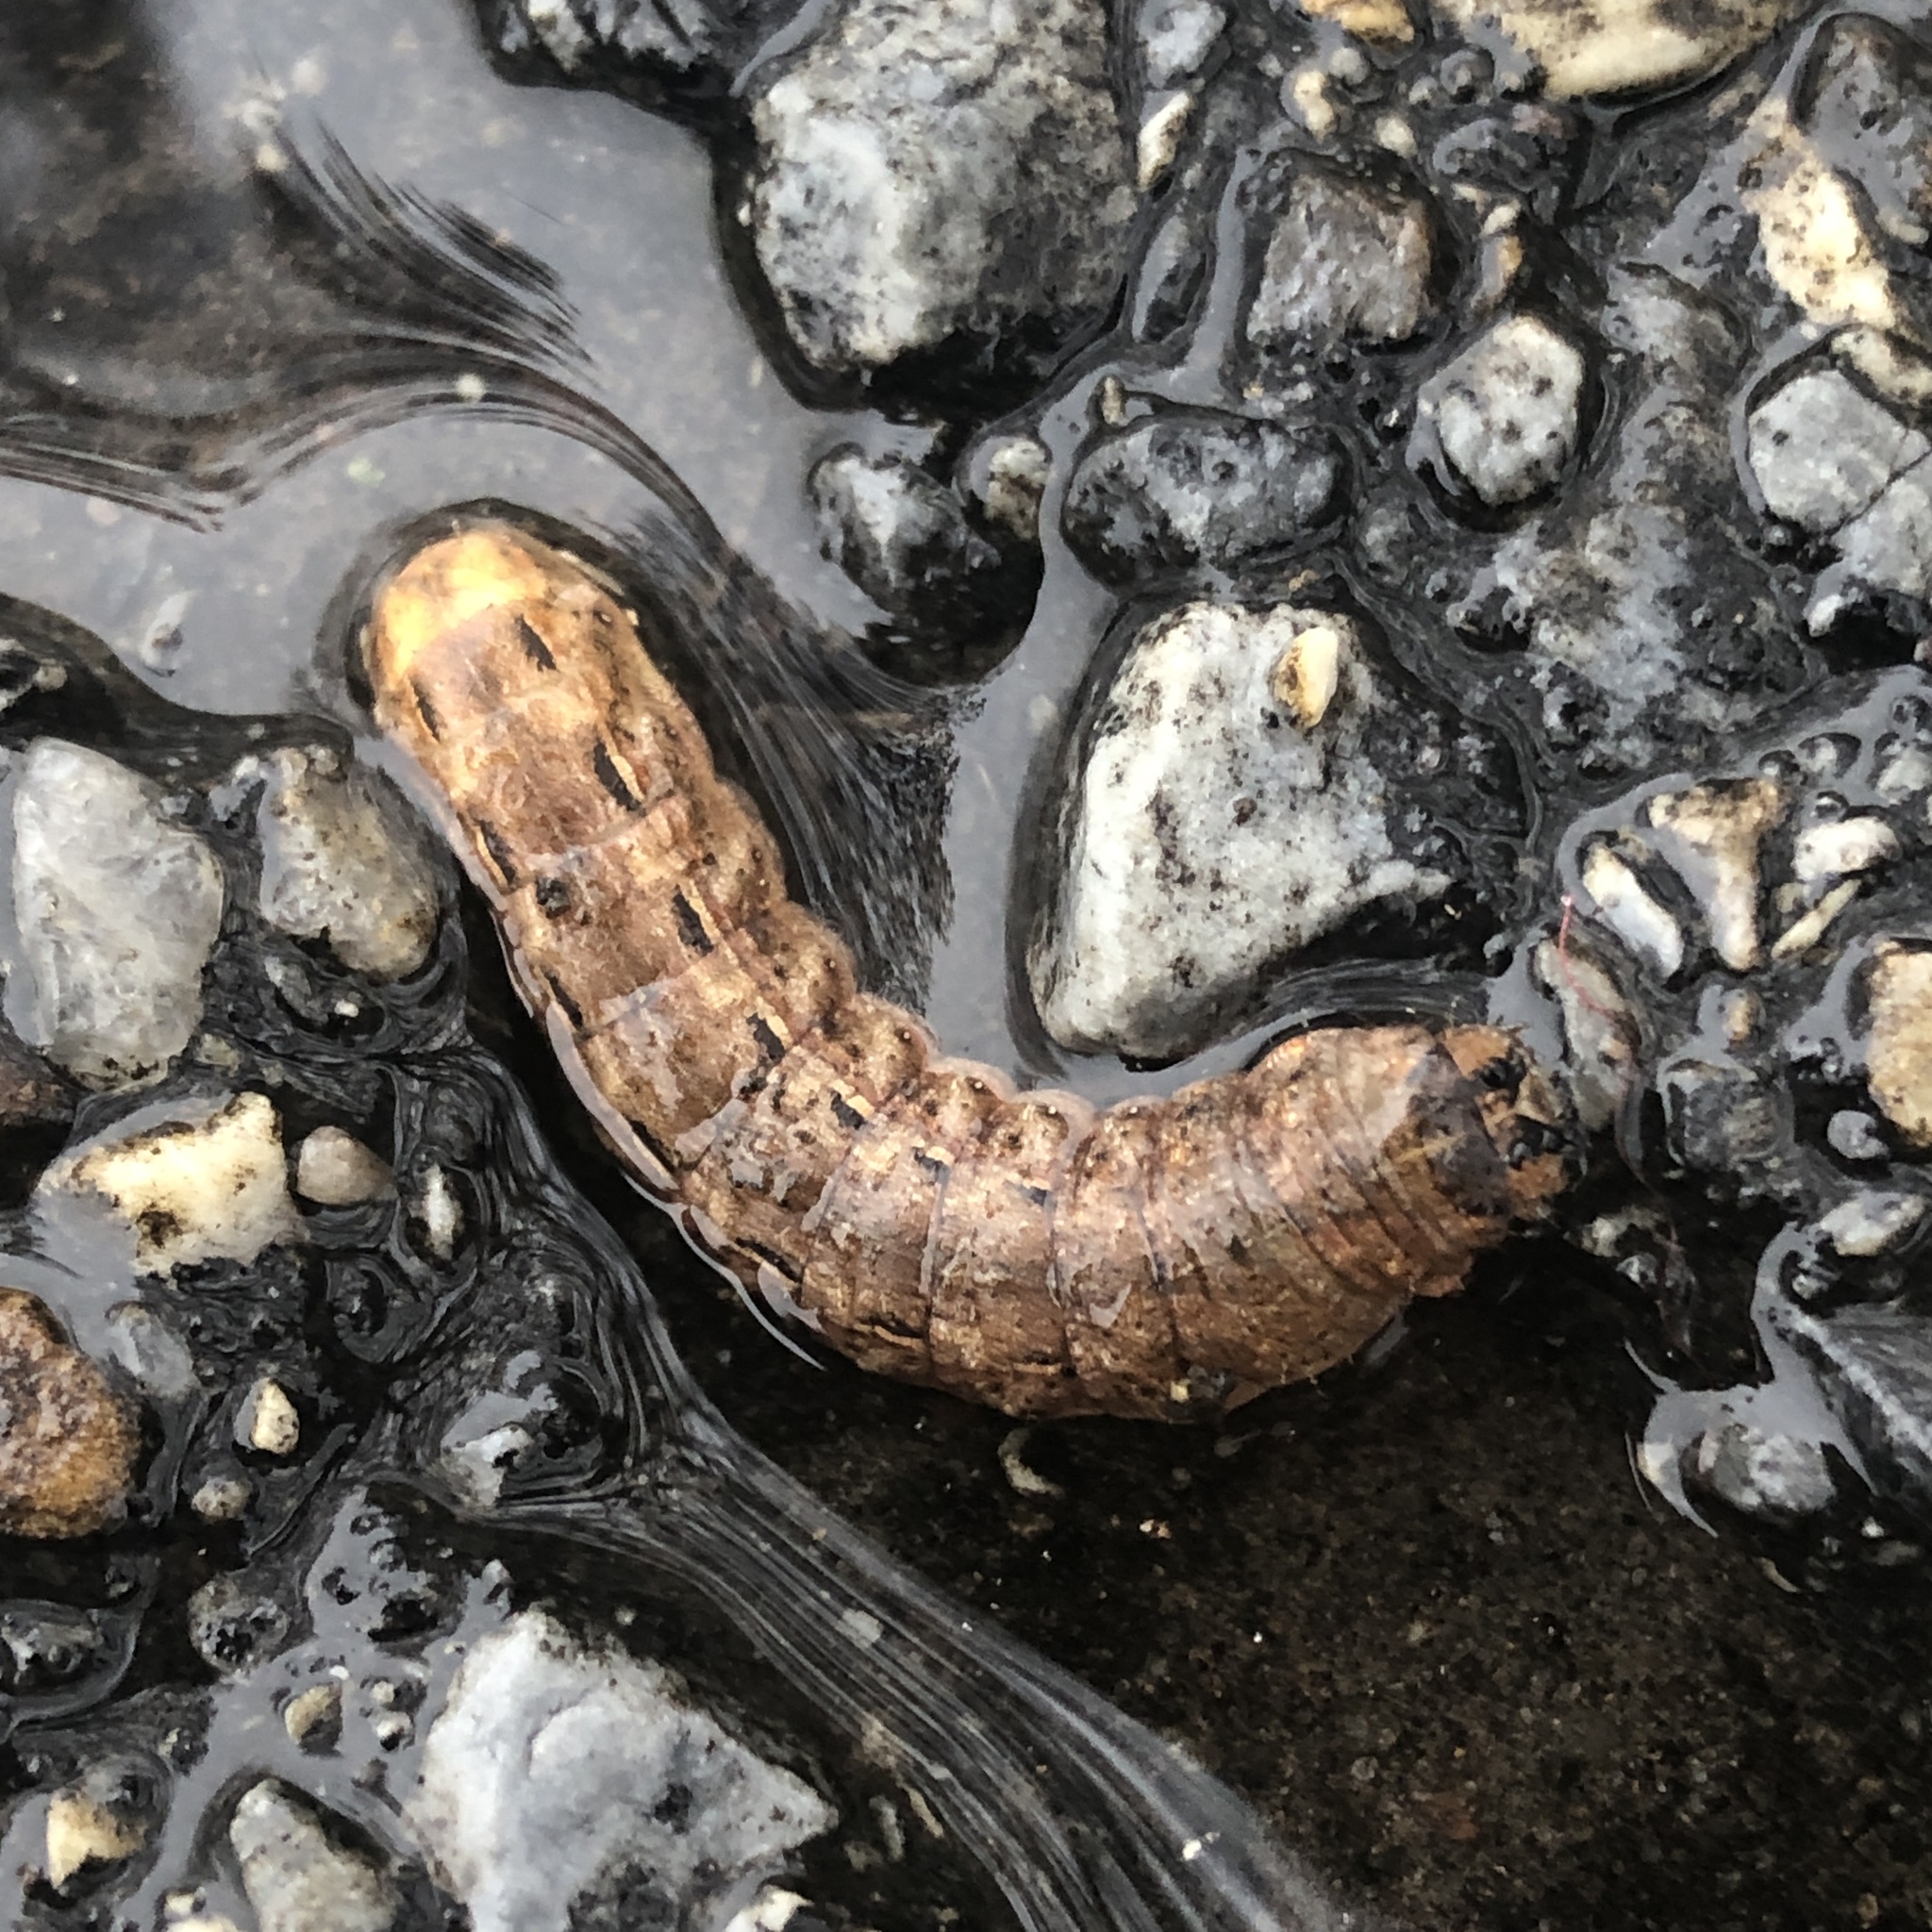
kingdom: Animalia
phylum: Arthropoda
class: Insecta
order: Lepidoptera
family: Noctuidae
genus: Noctua
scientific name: Noctua pronuba
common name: Large yellow underwing
